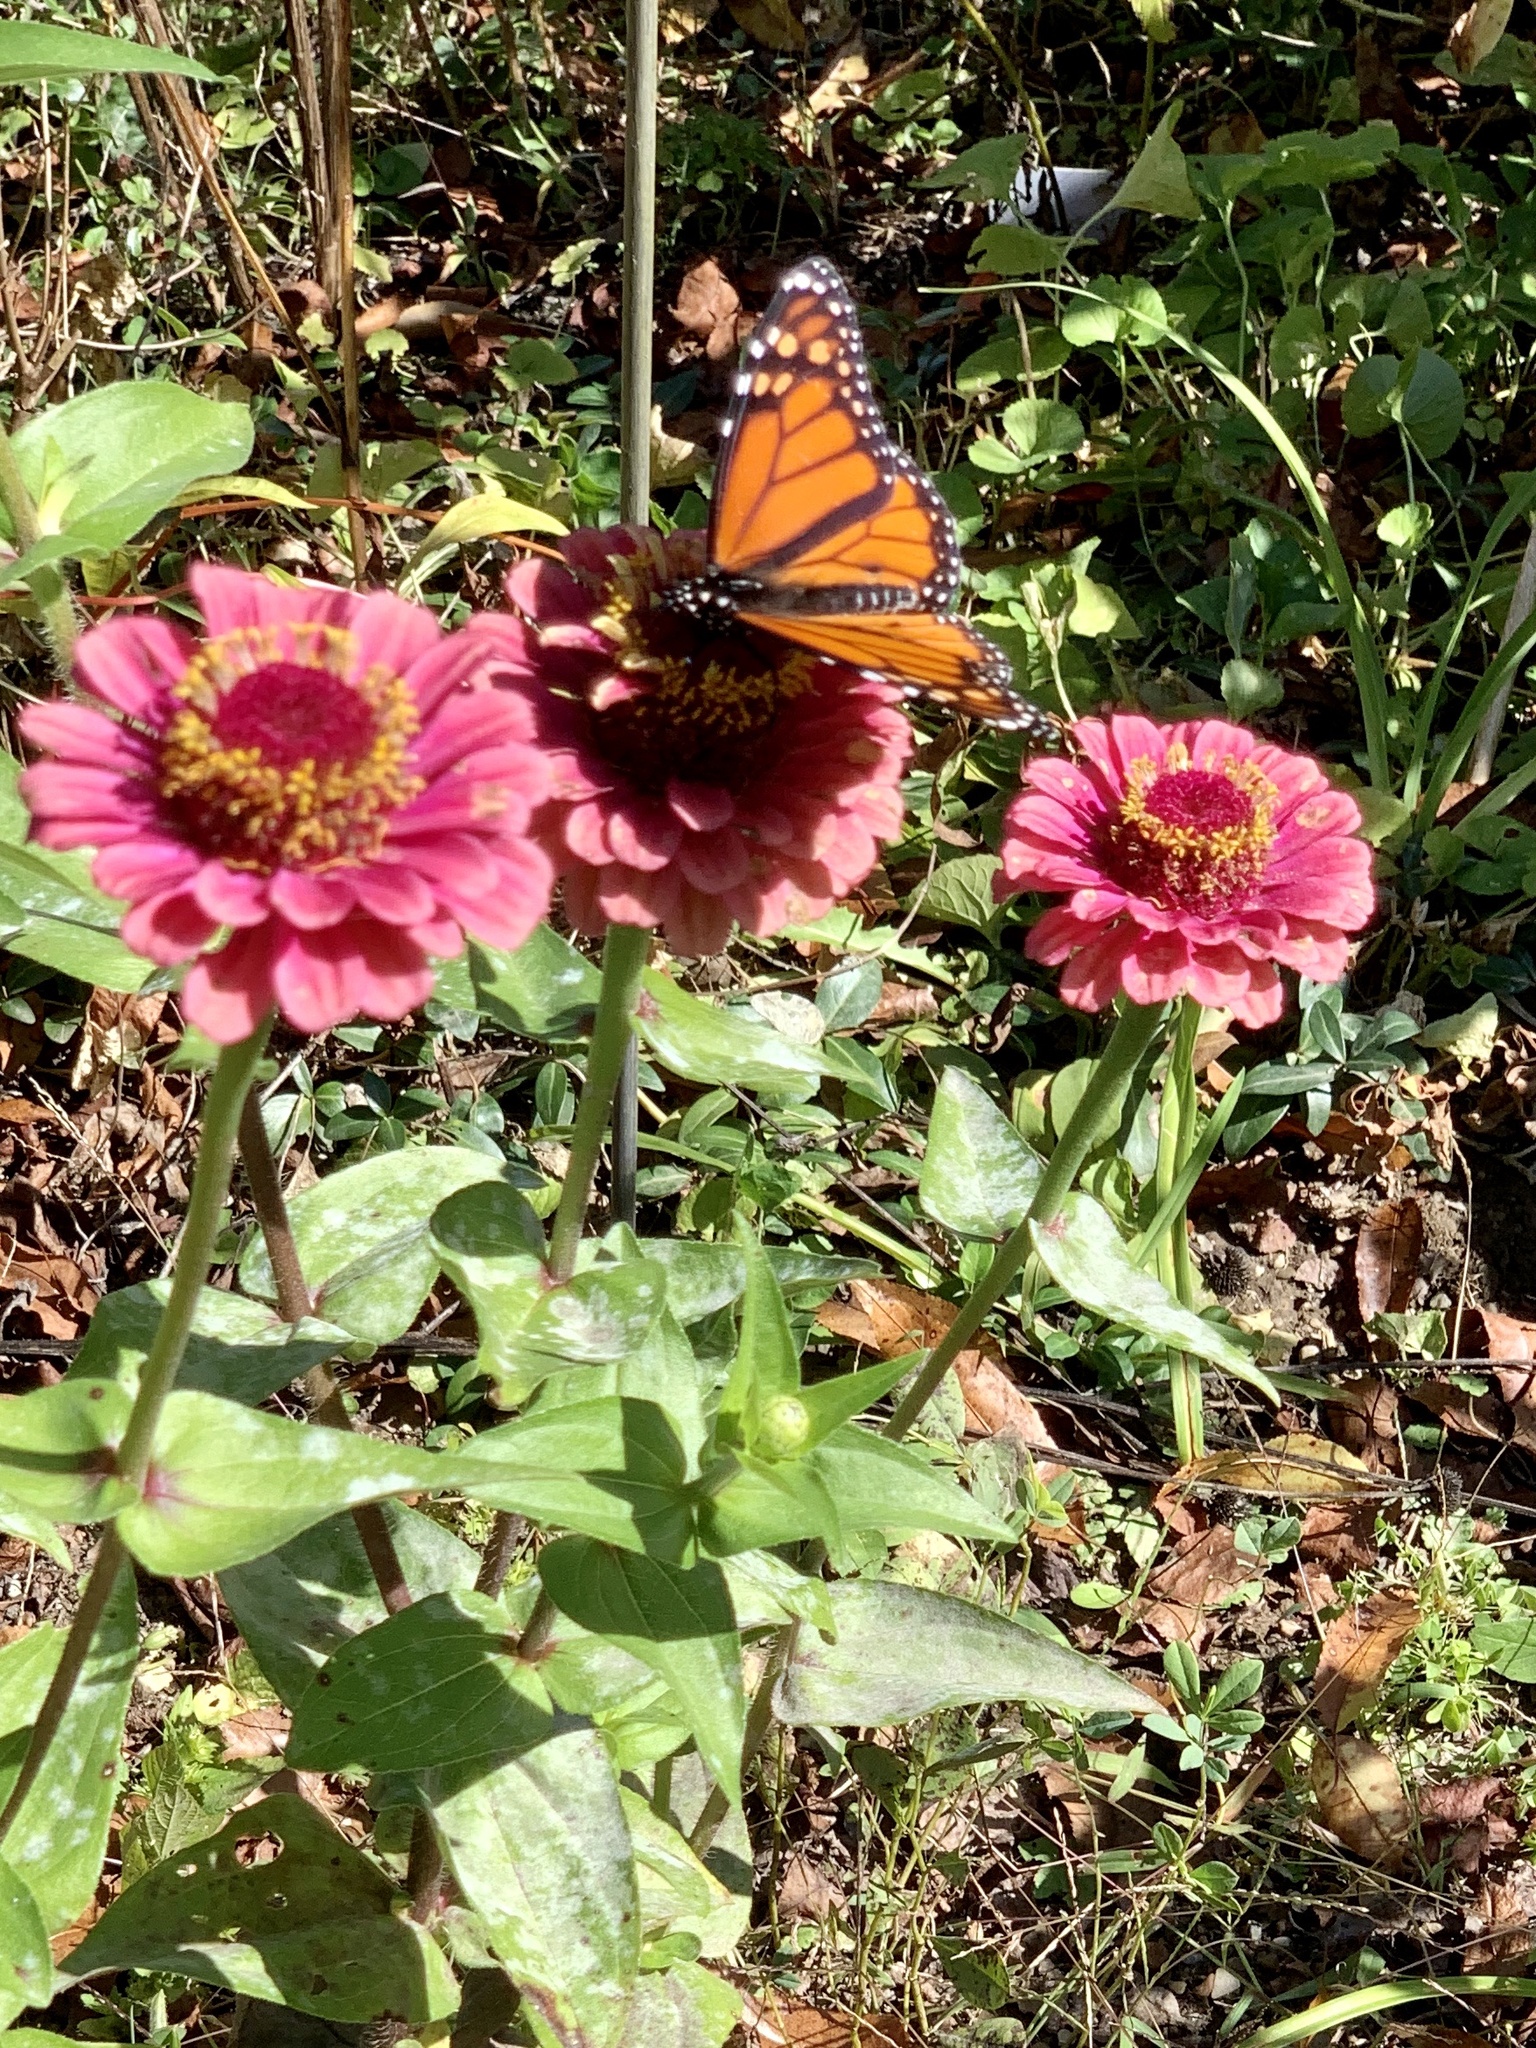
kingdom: Animalia
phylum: Arthropoda
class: Insecta
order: Lepidoptera
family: Nymphalidae
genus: Danaus
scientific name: Danaus plexippus
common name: Monarch
